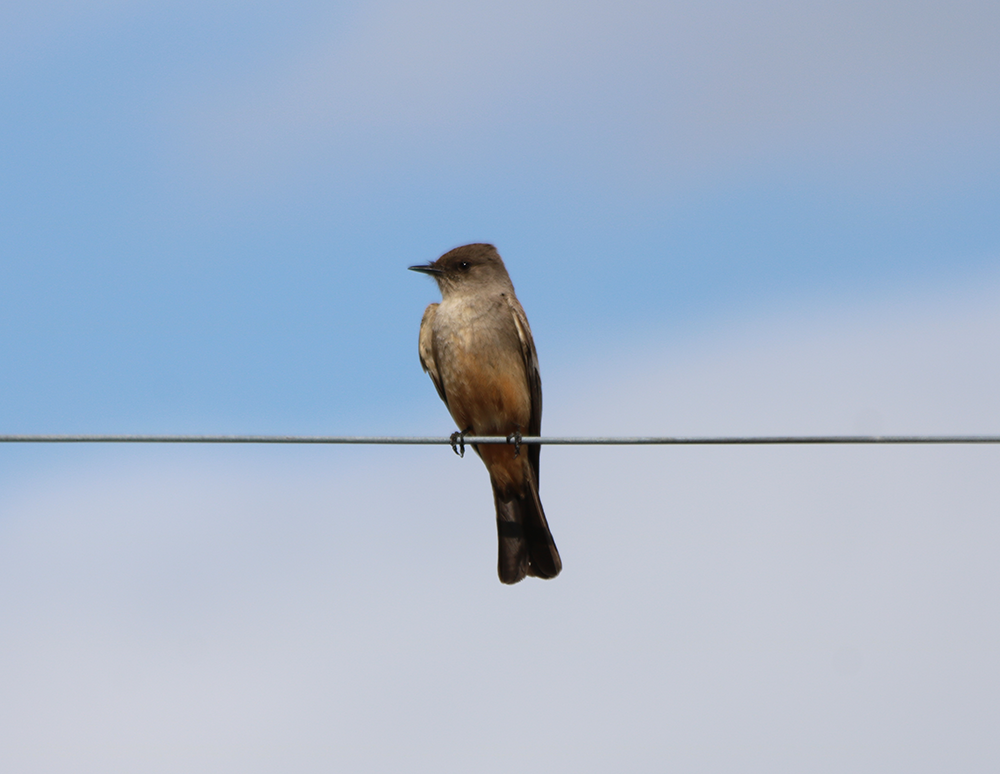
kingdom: Animalia
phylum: Chordata
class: Aves
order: Passeriformes
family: Tyrannidae
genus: Sayornis
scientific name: Sayornis saya
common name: Say's phoebe
